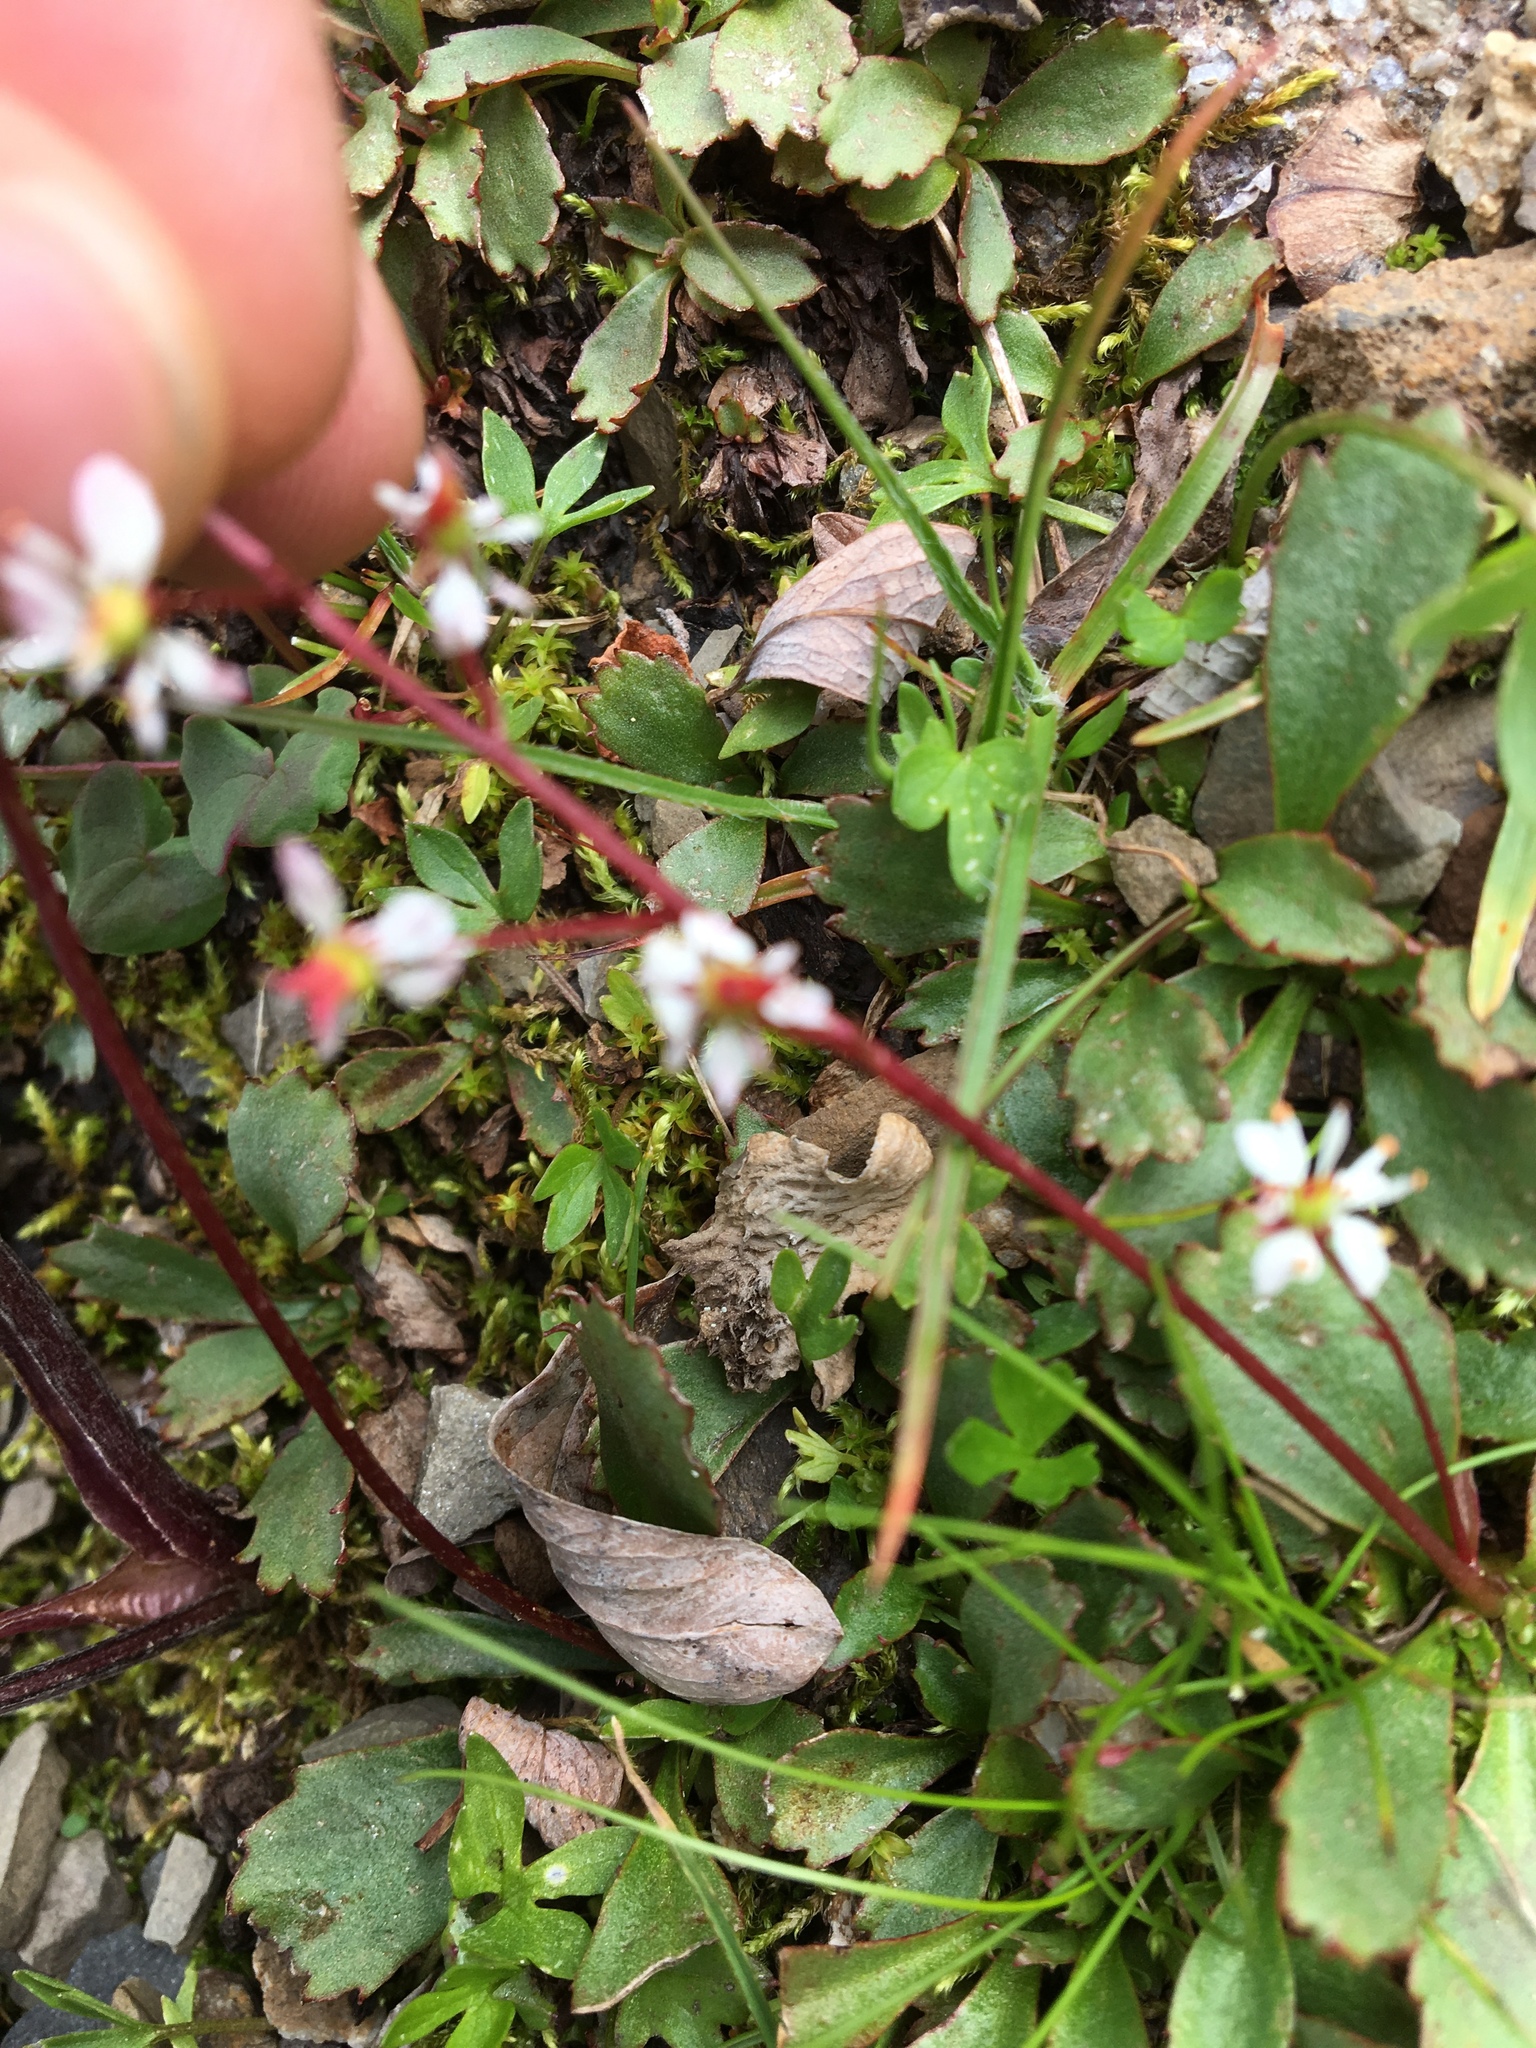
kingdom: Plantae
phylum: Tracheophyta
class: Magnoliopsida
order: Saxifragales
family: Saxifragaceae
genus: Micranthes
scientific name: Micranthes lyallii
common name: Lyall's saxifrage
